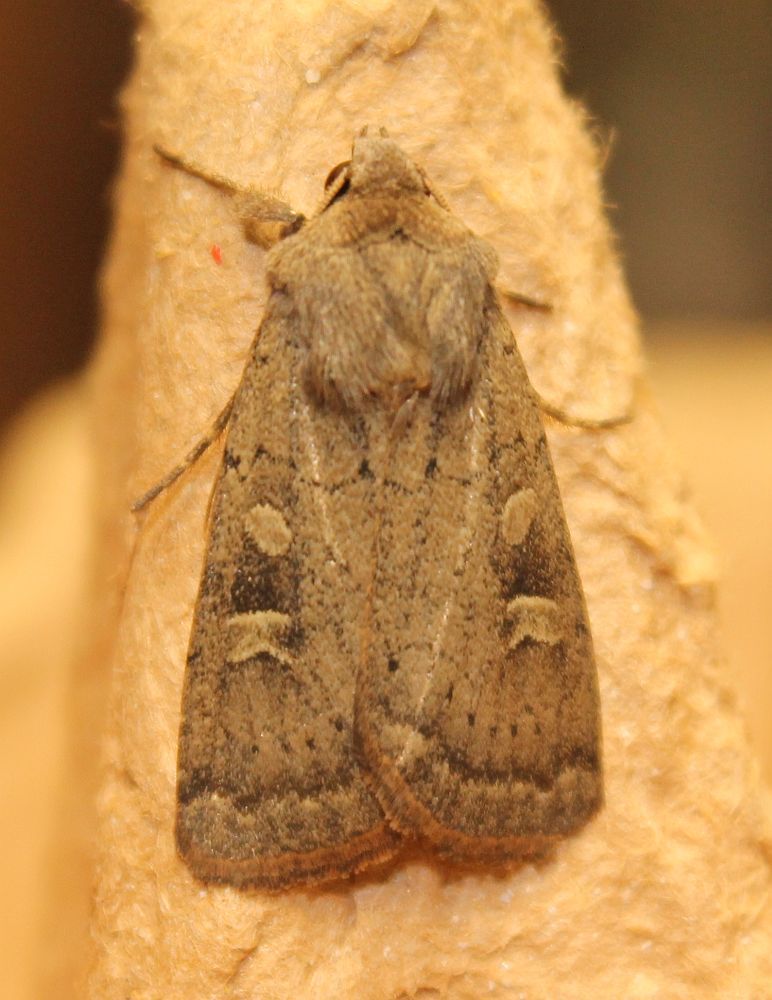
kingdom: Animalia
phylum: Arthropoda
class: Insecta
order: Lepidoptera
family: Noctuidae
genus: Xestia
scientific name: Xestia xanthographa
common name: Square-spot rustic
